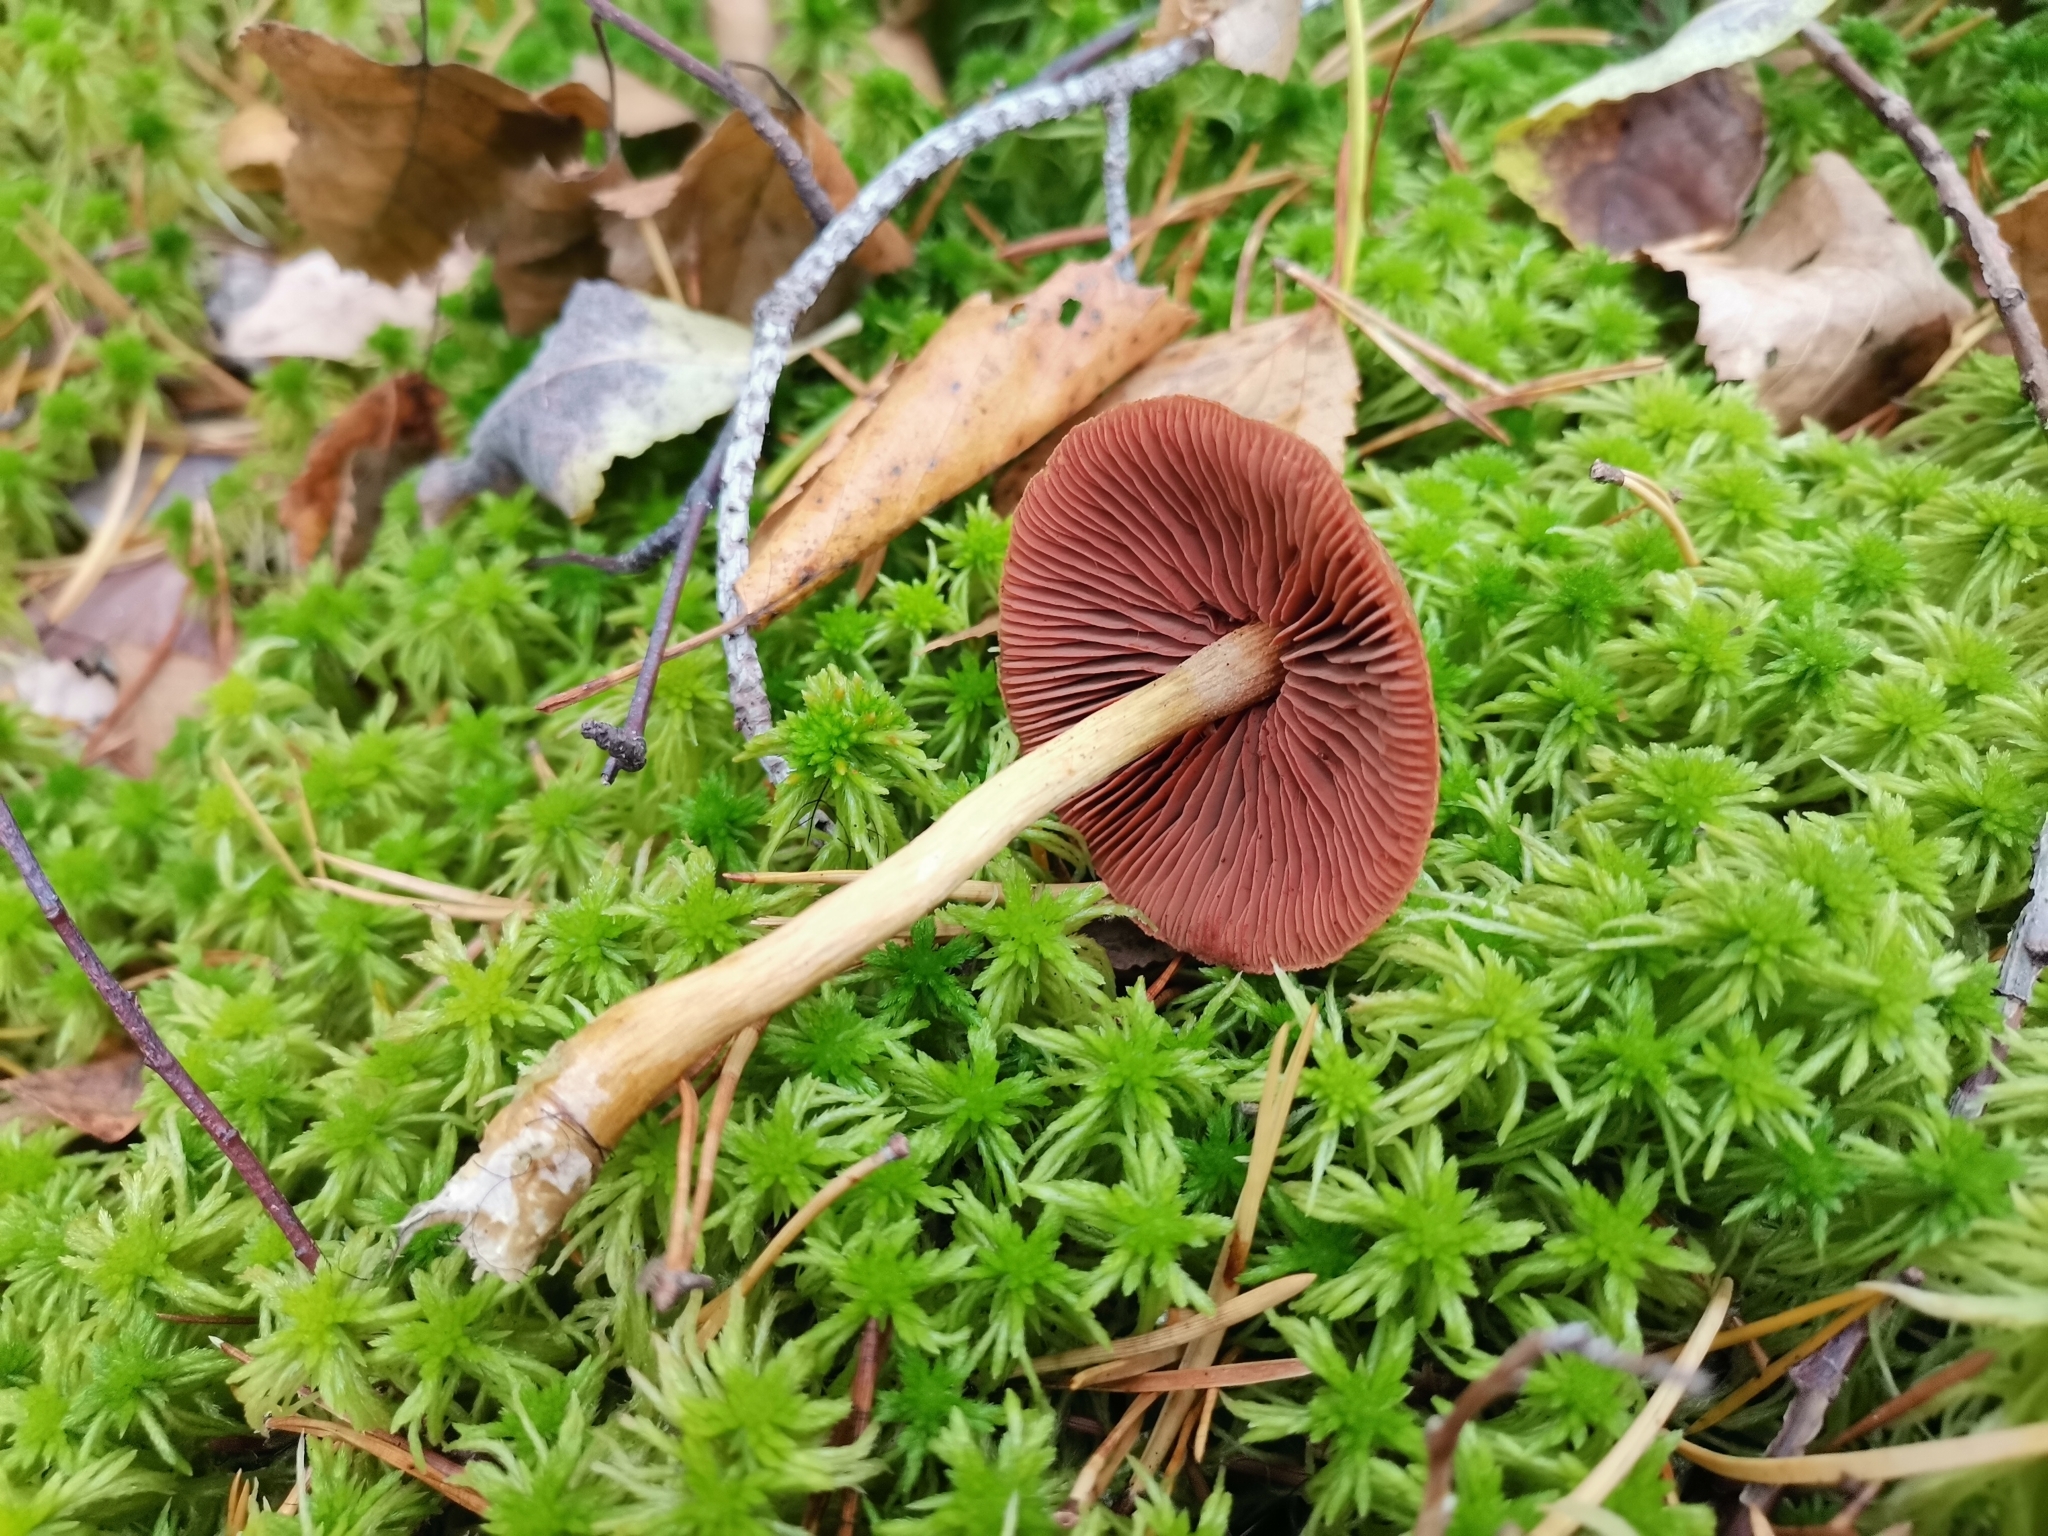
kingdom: Fungi
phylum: Basidiomycota
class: Agaricomycetes
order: Agaricales
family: Cortinariaceae
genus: Cortinarius
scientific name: Cortinarius semisanguineus
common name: Surprise webcap
